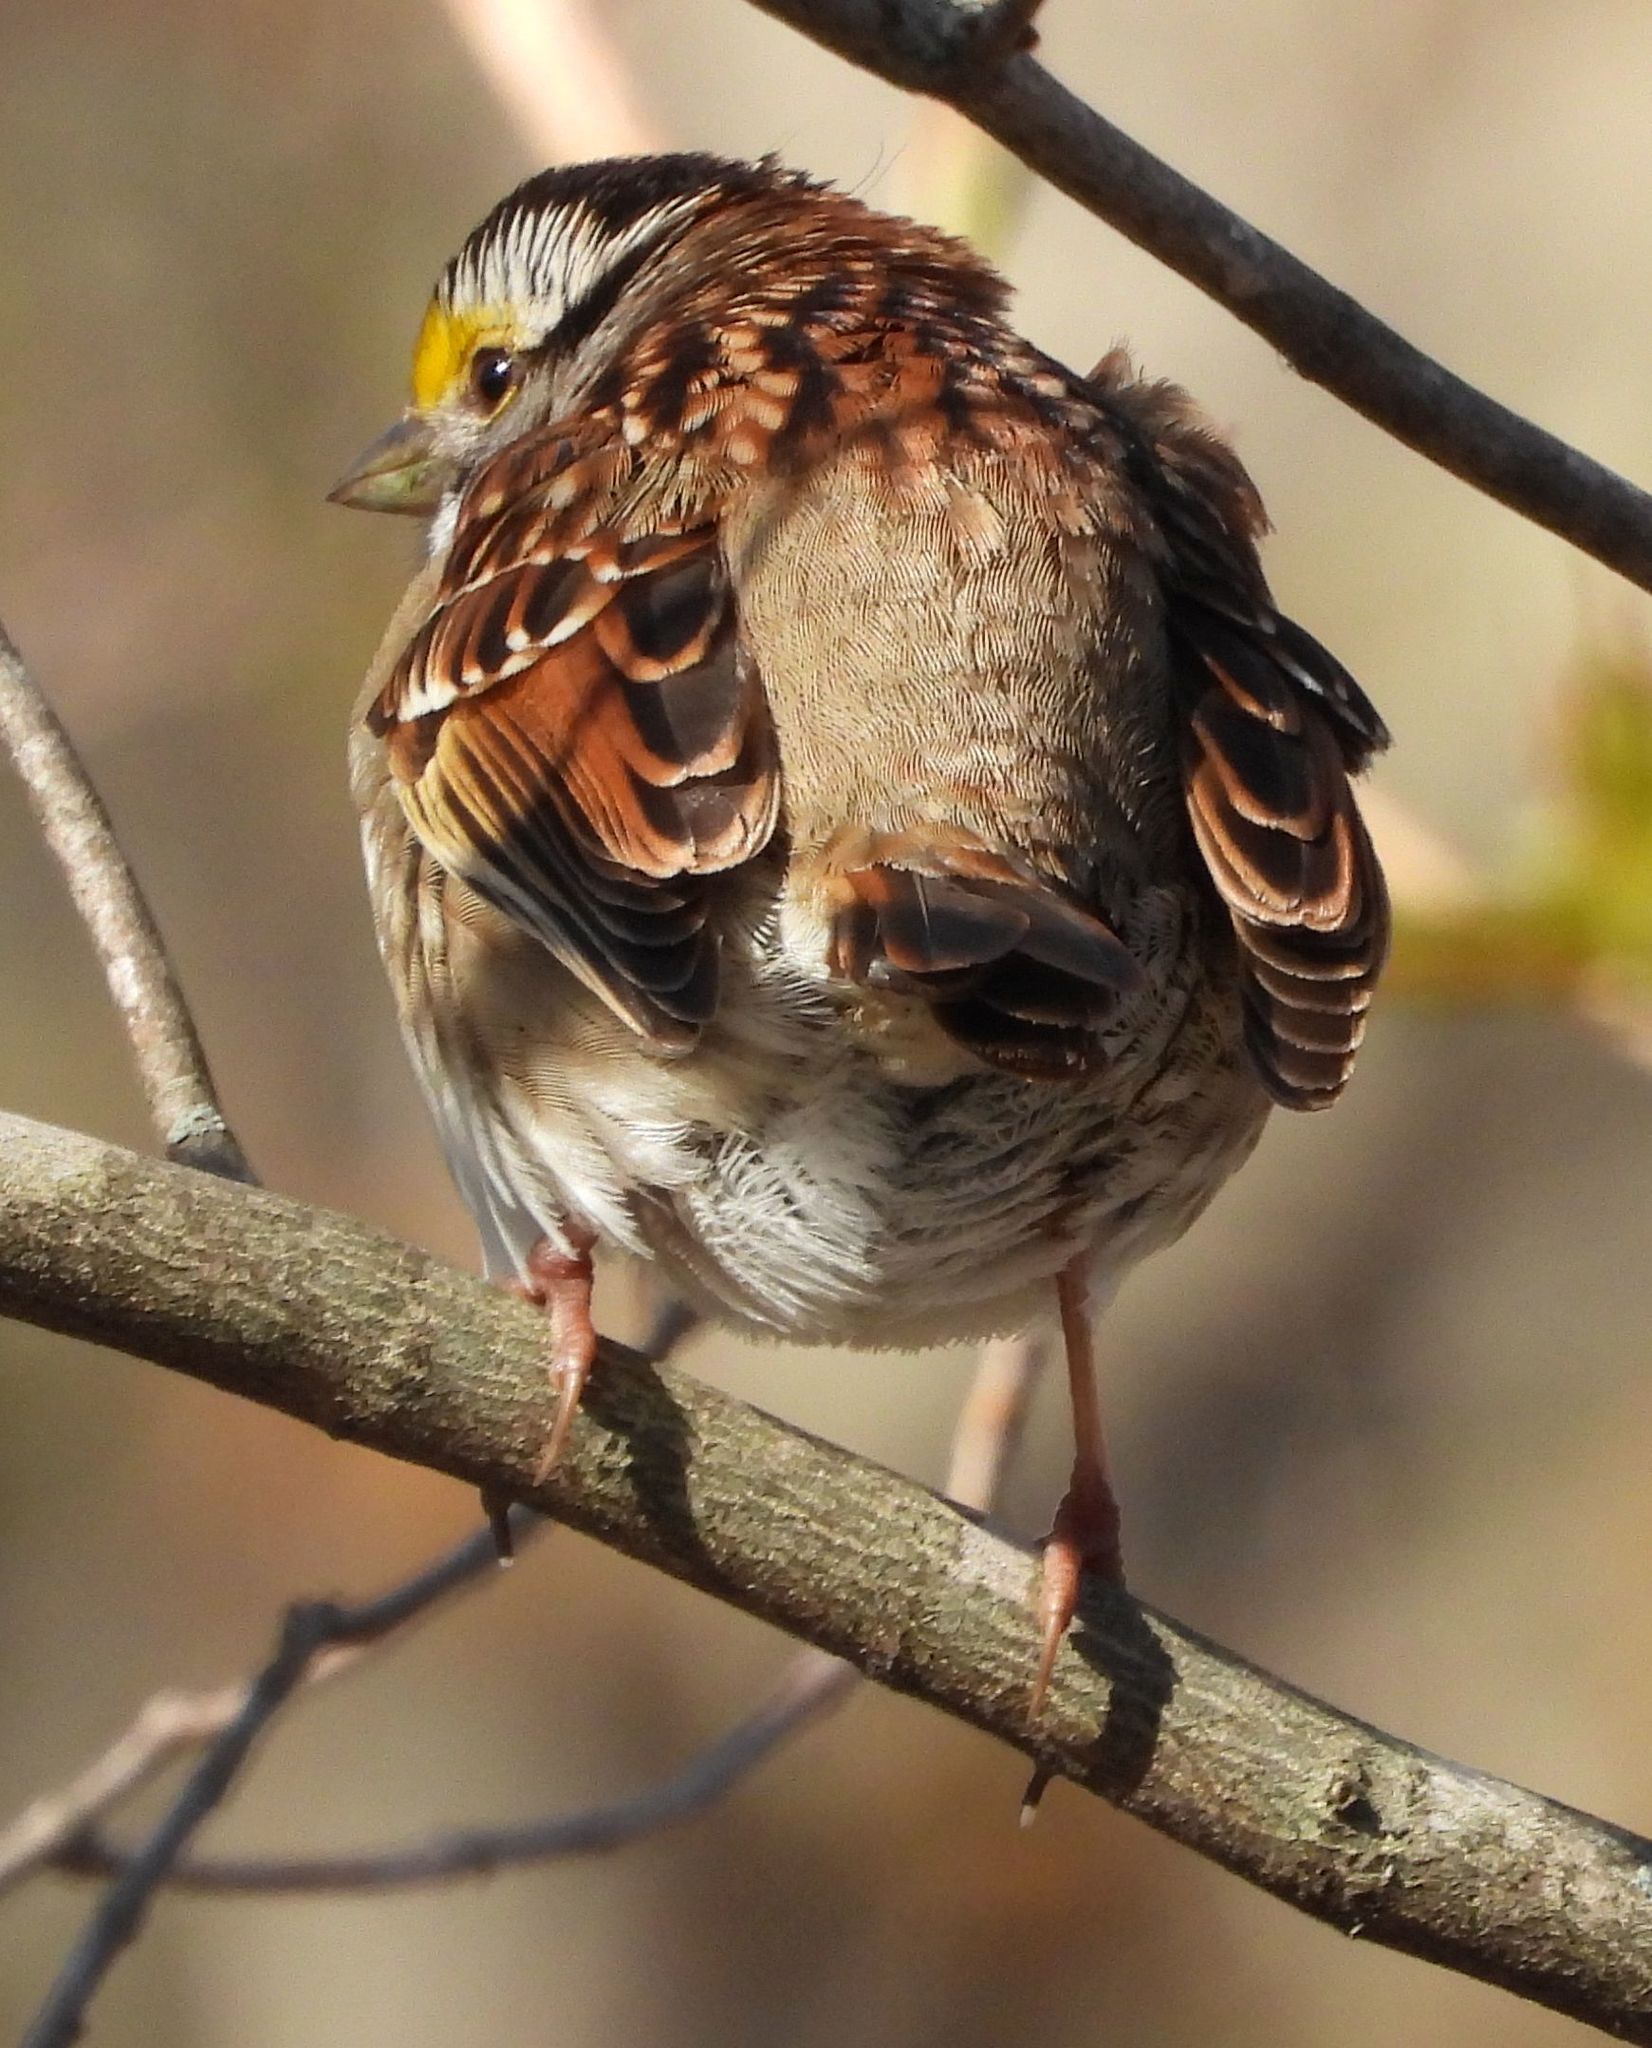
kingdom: Animalia
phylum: Chordata
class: Aves
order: Passeriformes
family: Passerellidae
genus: Zonotrichia
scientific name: Zonotrichia albicollis
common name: White-throated sparrow
